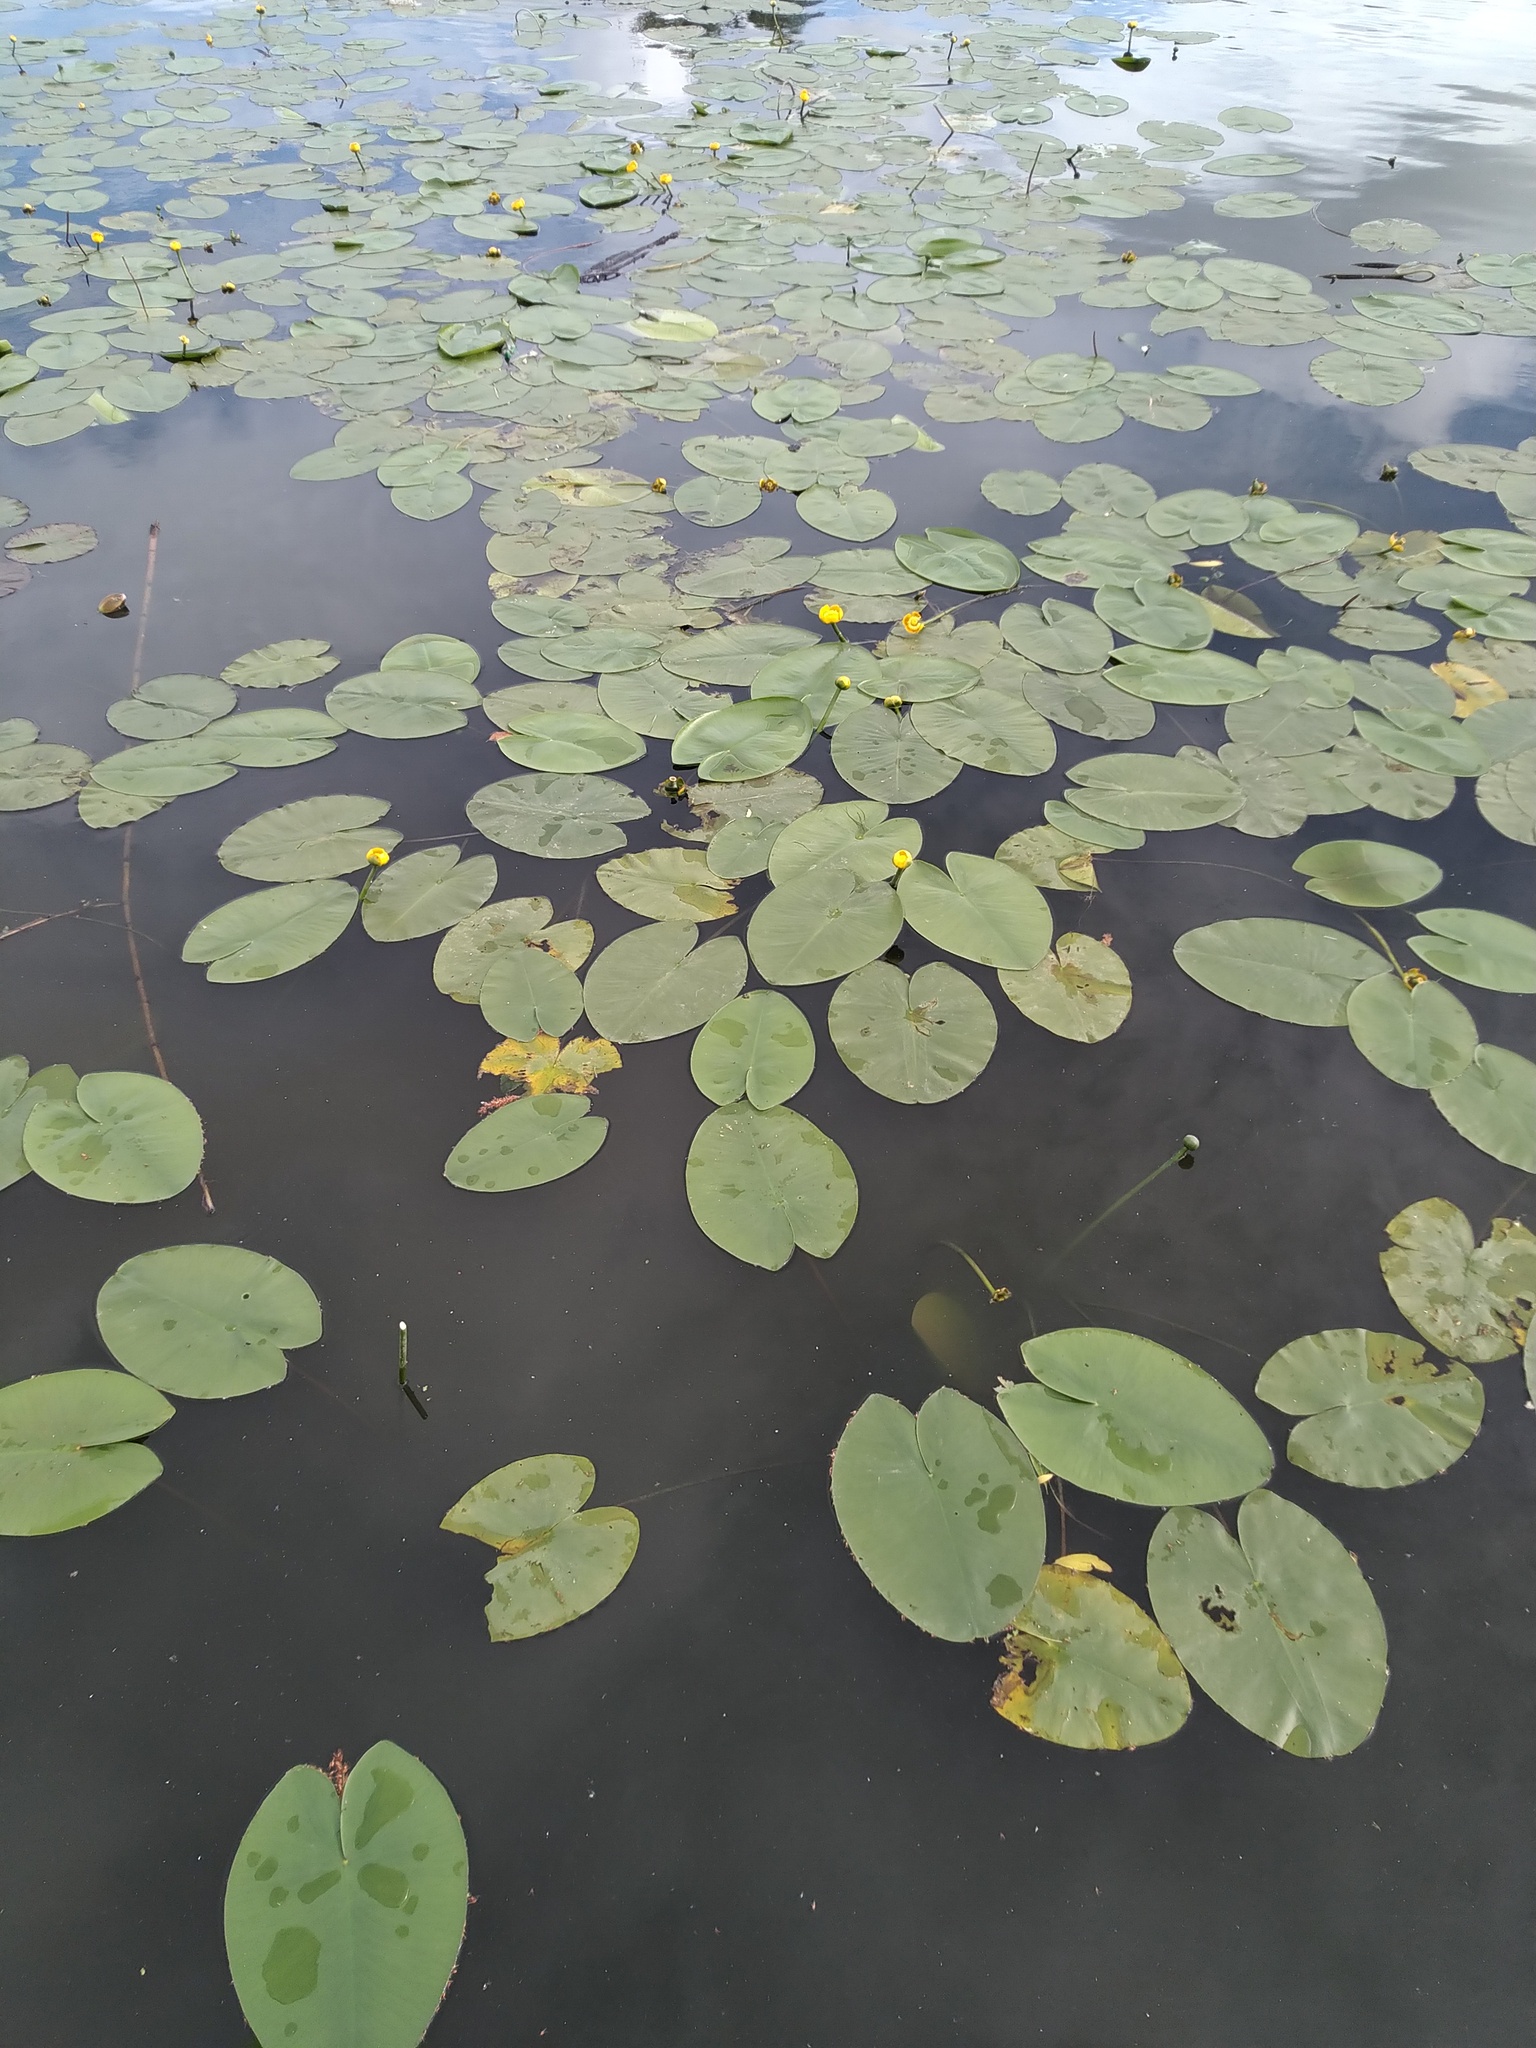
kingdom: Plantae
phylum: Tracheophyta
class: Magnoliopsida
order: Nymphaeales
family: Nymphaeaceae
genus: Nuphar
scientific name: Nuphar lutea
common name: Yellow water-lily
